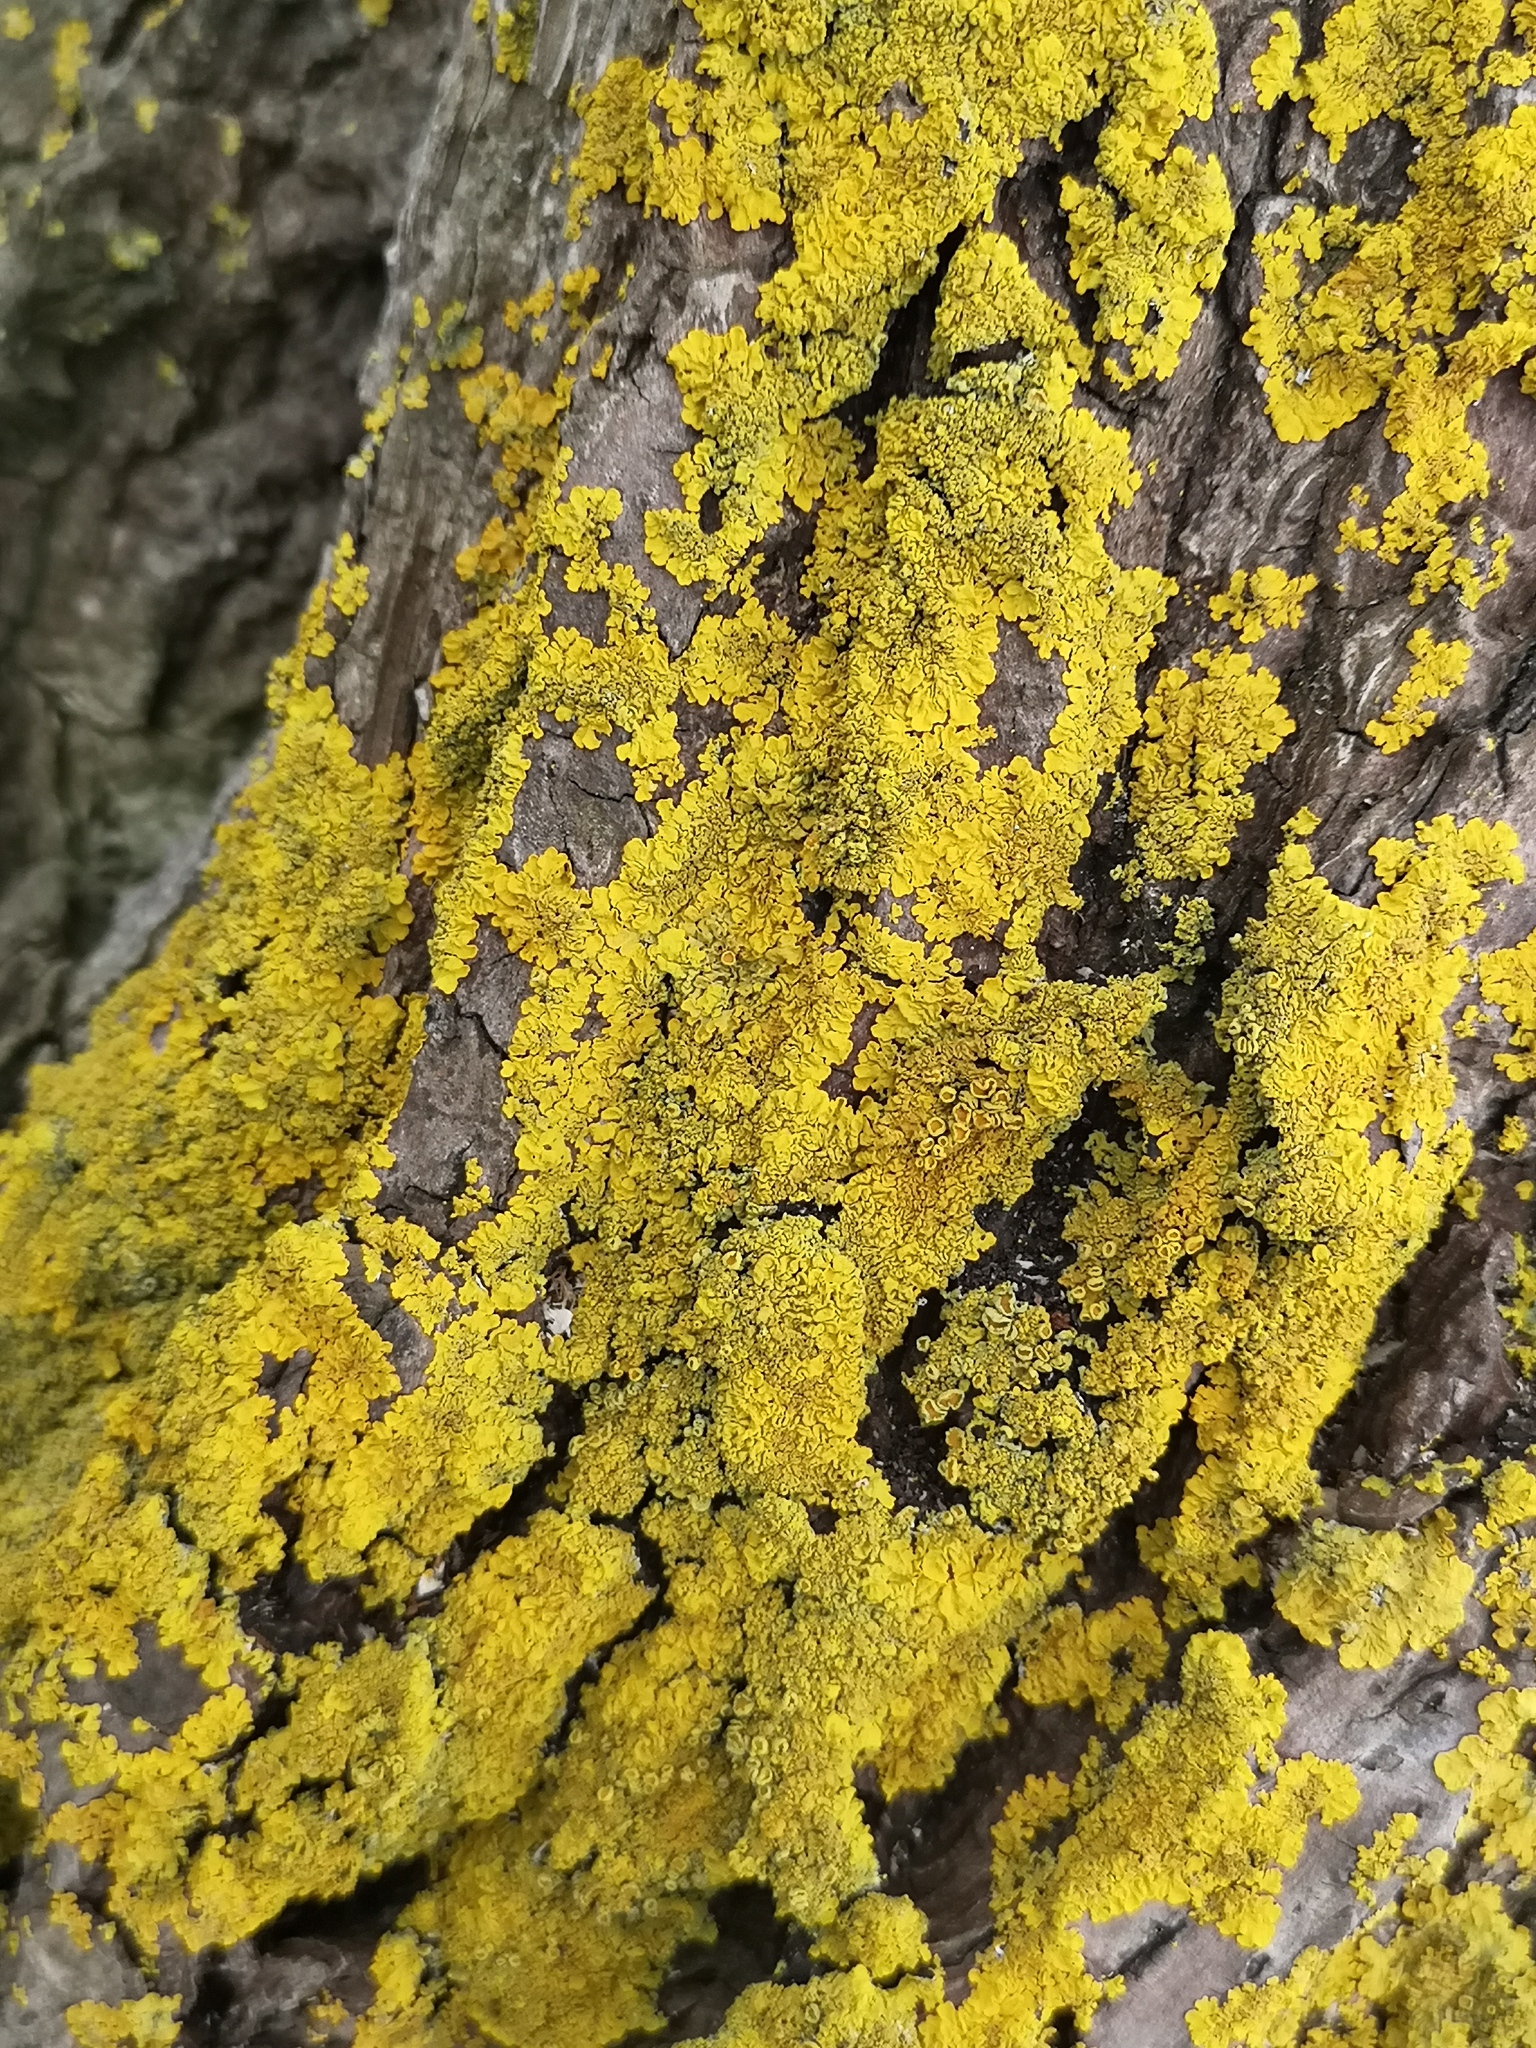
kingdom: Fungi
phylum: Ascomycota
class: Lecanoromycetes
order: Teloschistales
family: Teloschistaceae
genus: Xanthoria
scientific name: Xanthoria parietina
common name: Common orange lichen
